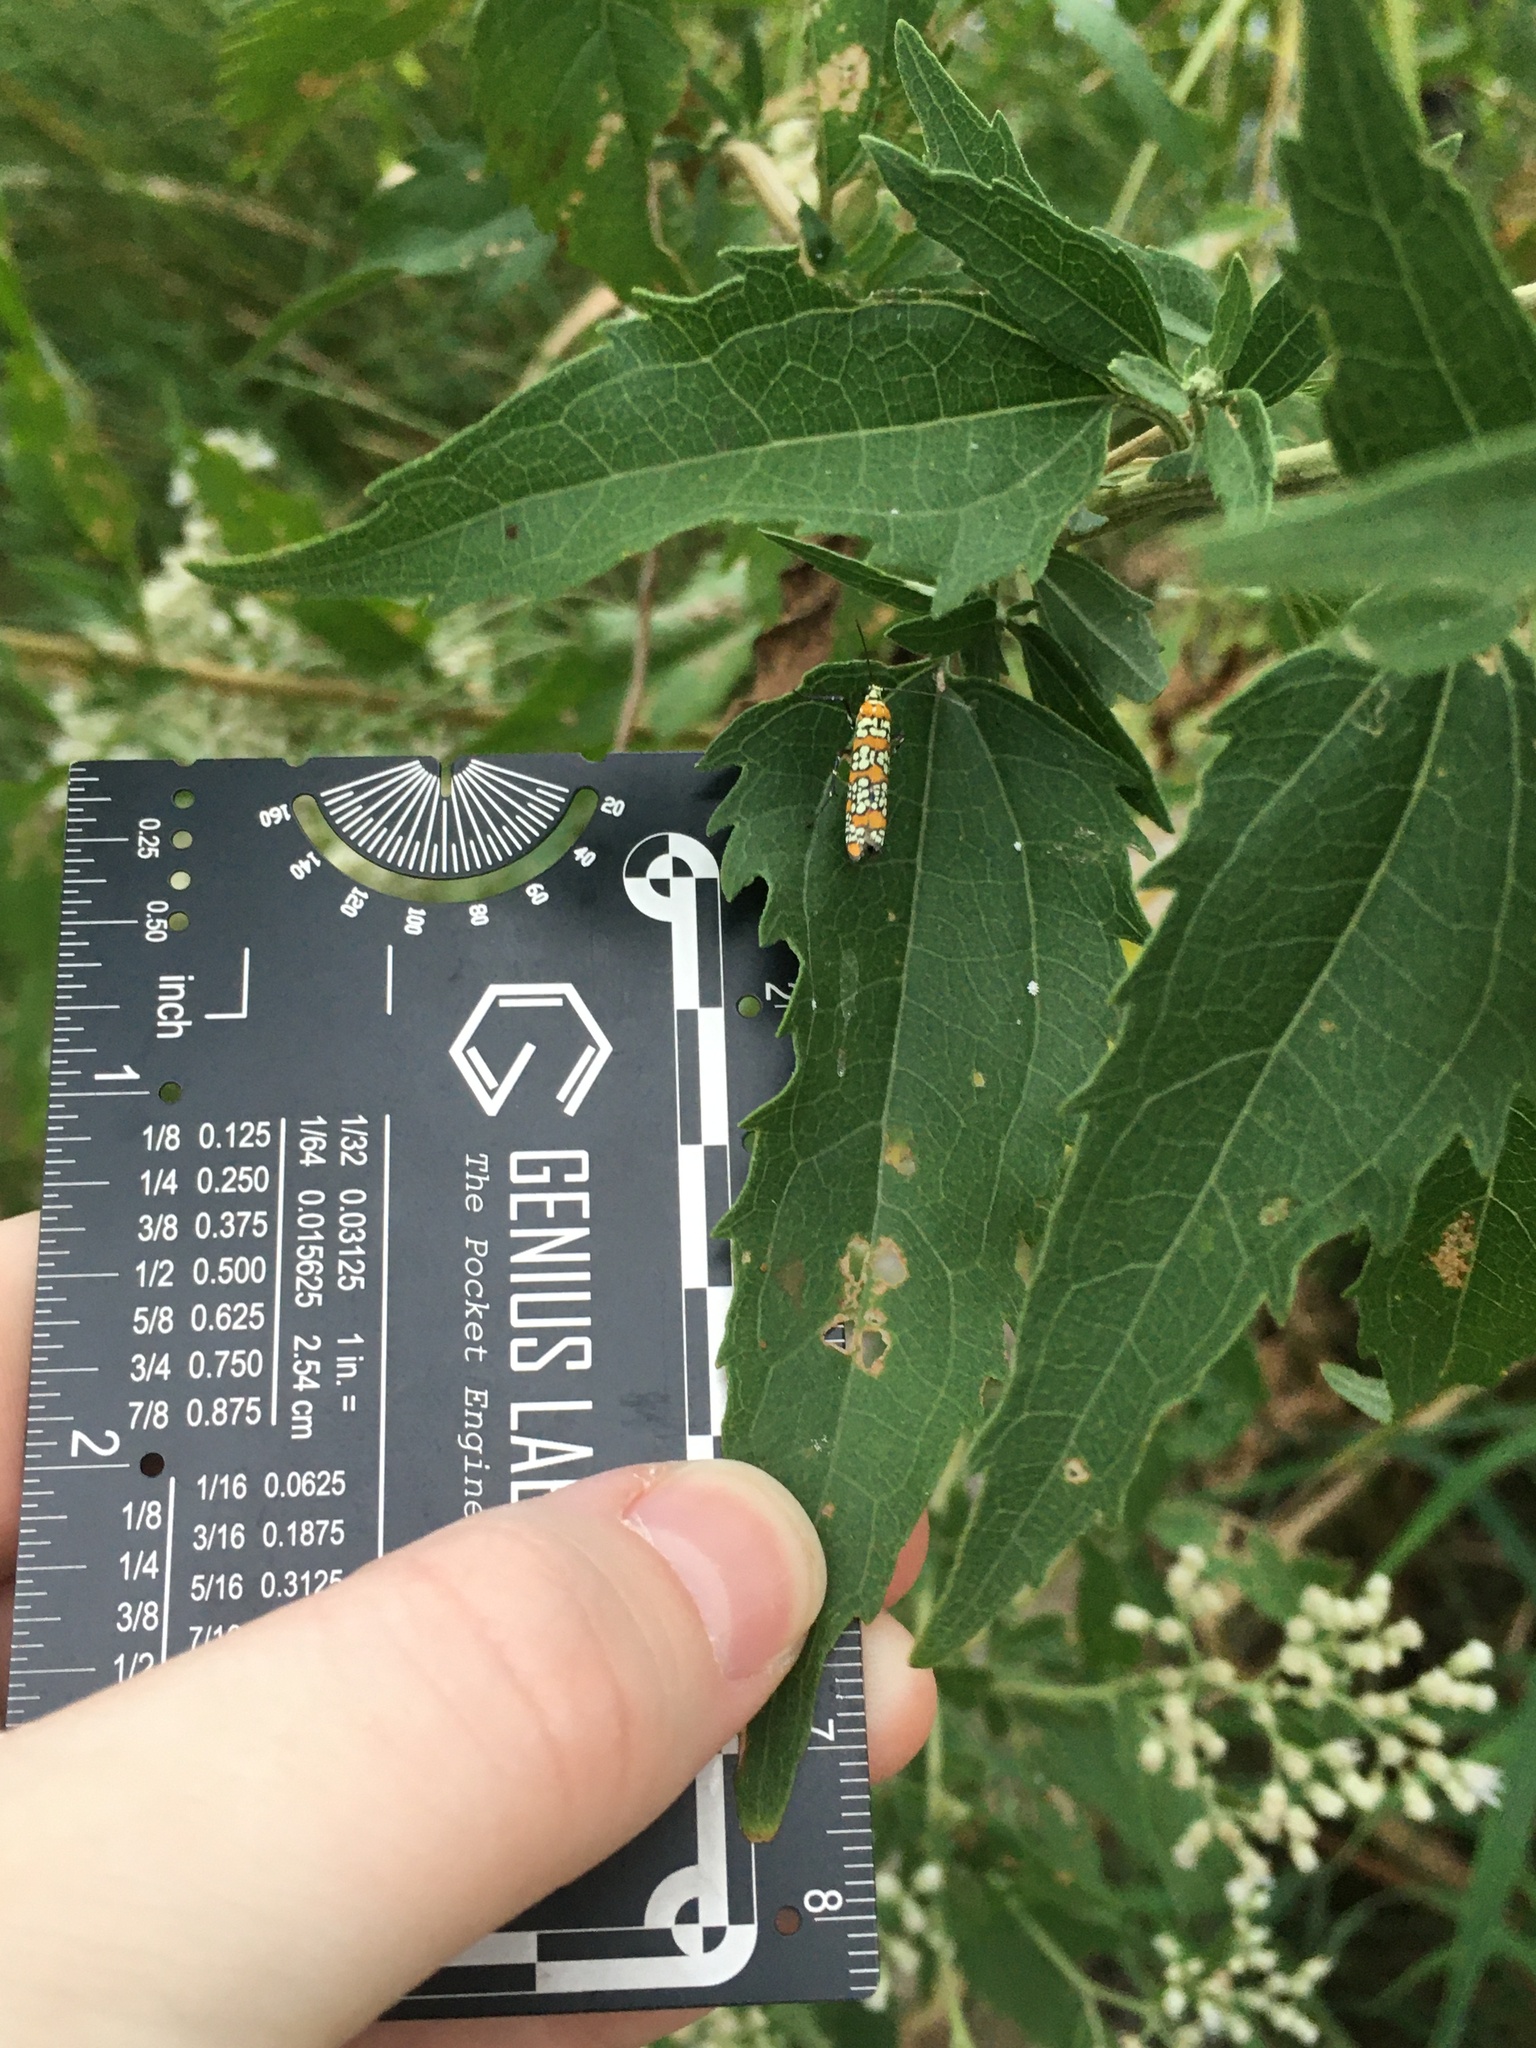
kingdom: Animalia
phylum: Arthropoda
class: Insecta
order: Lepidoptera
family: Attevidae
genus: Atteva
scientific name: Atteva punctella
